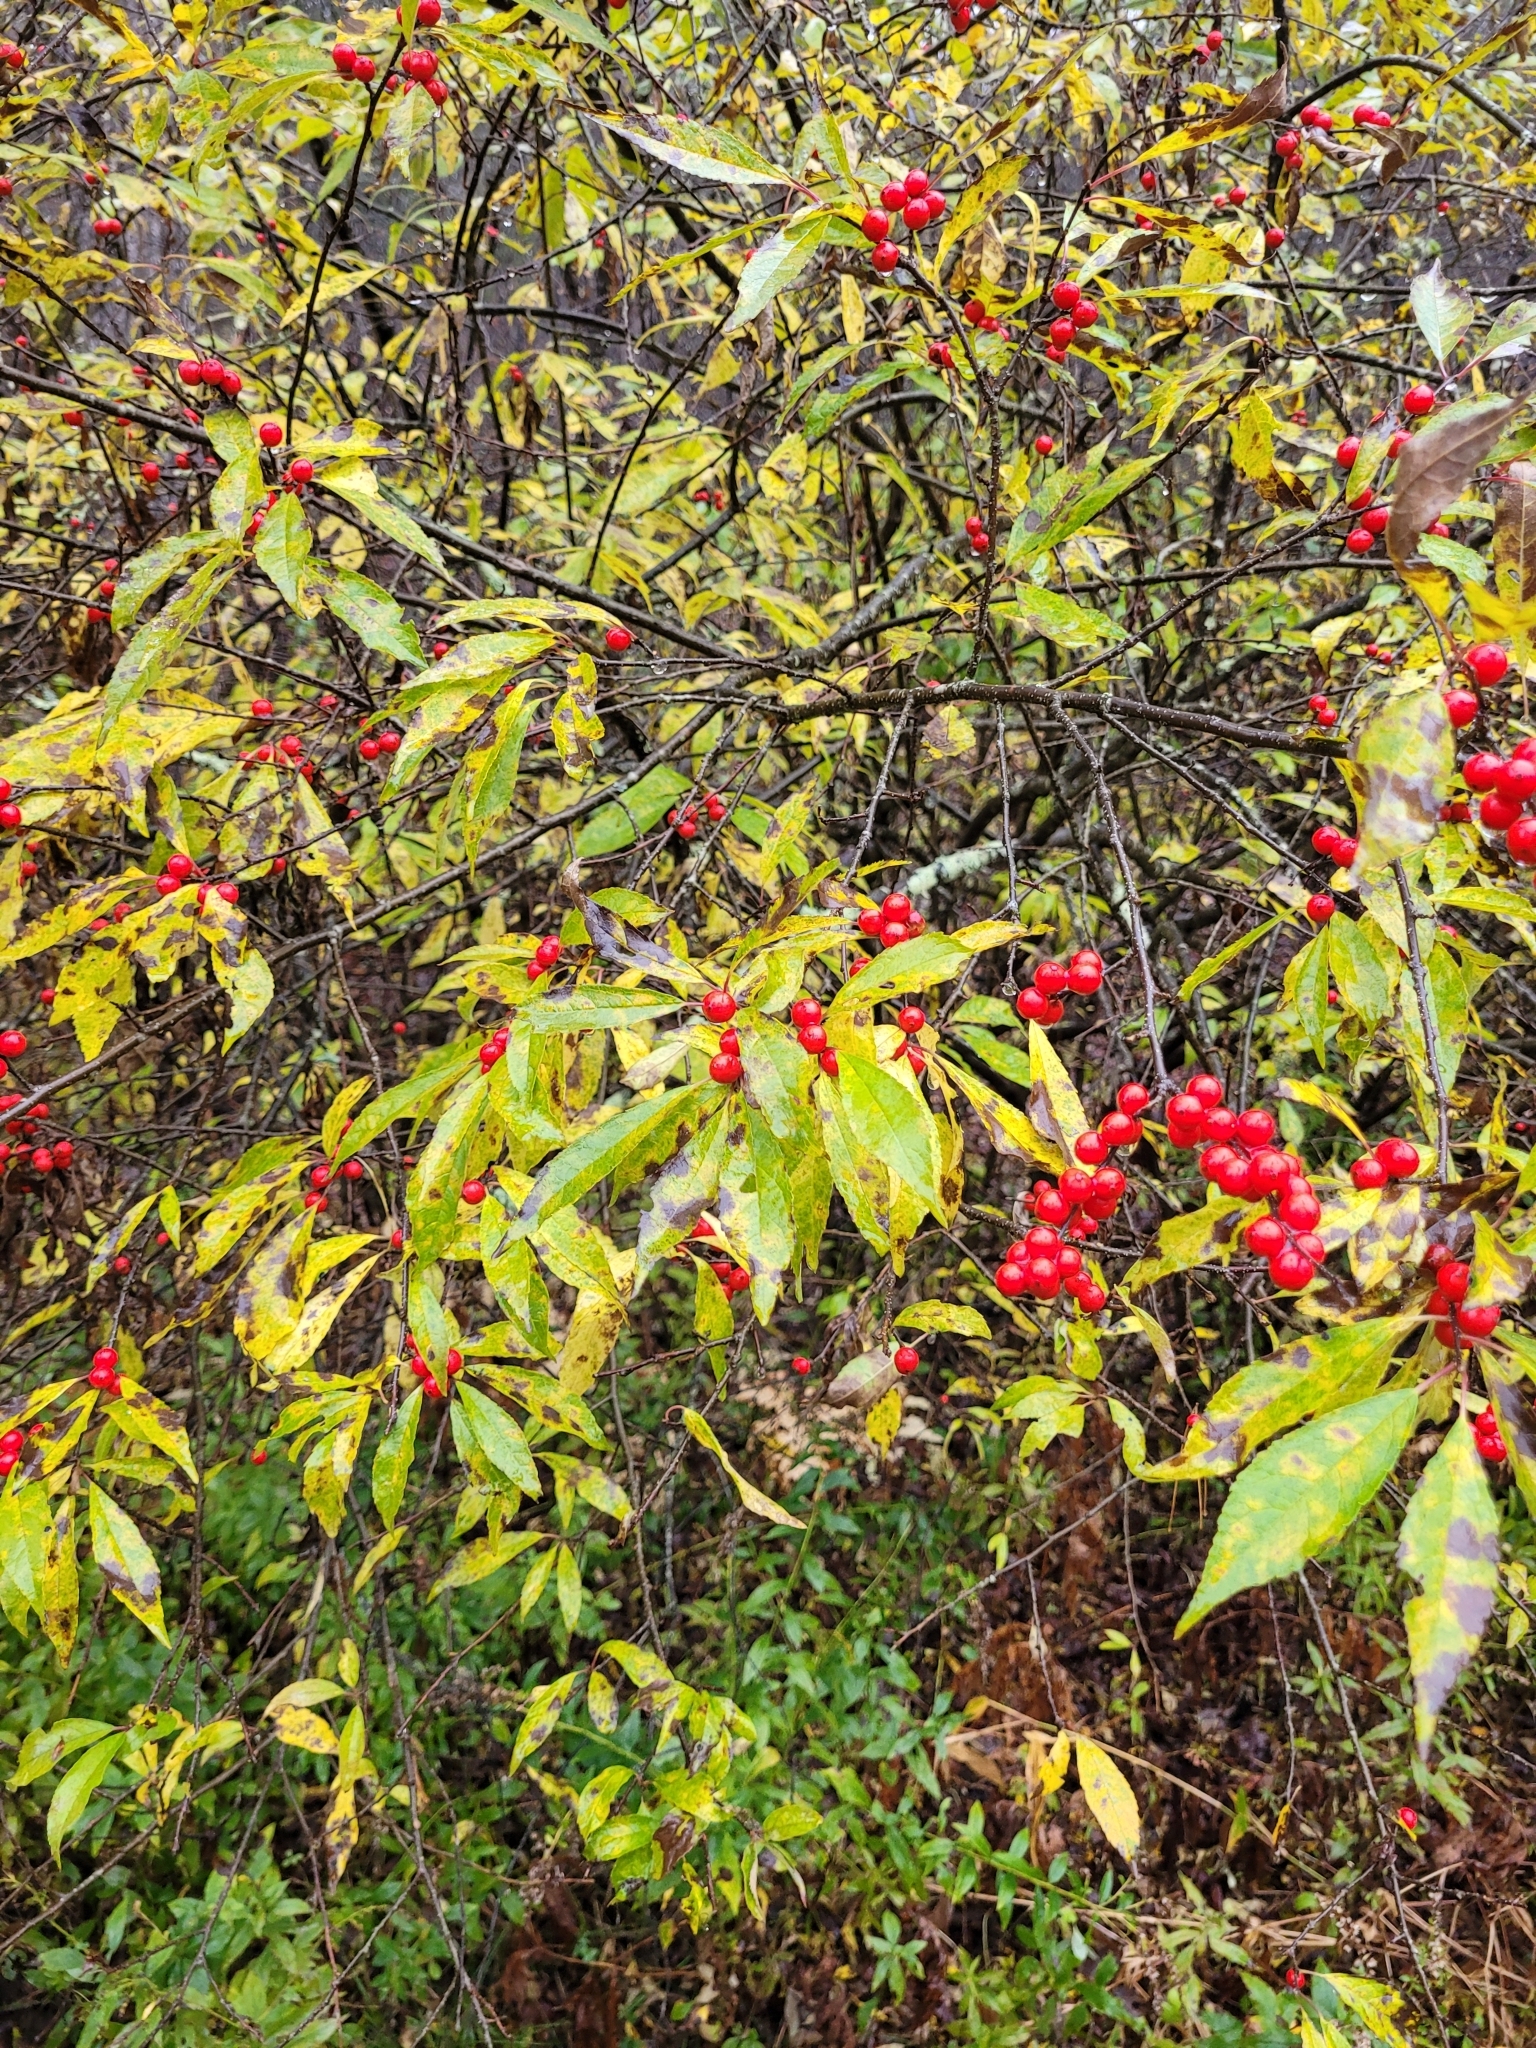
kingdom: Plantae
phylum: Tracheophyta
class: Magnoliopsida
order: Aquifoliales
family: Aquifoliaceae
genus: Ilex
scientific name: Ilex verticillata
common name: Virginia winterberry
